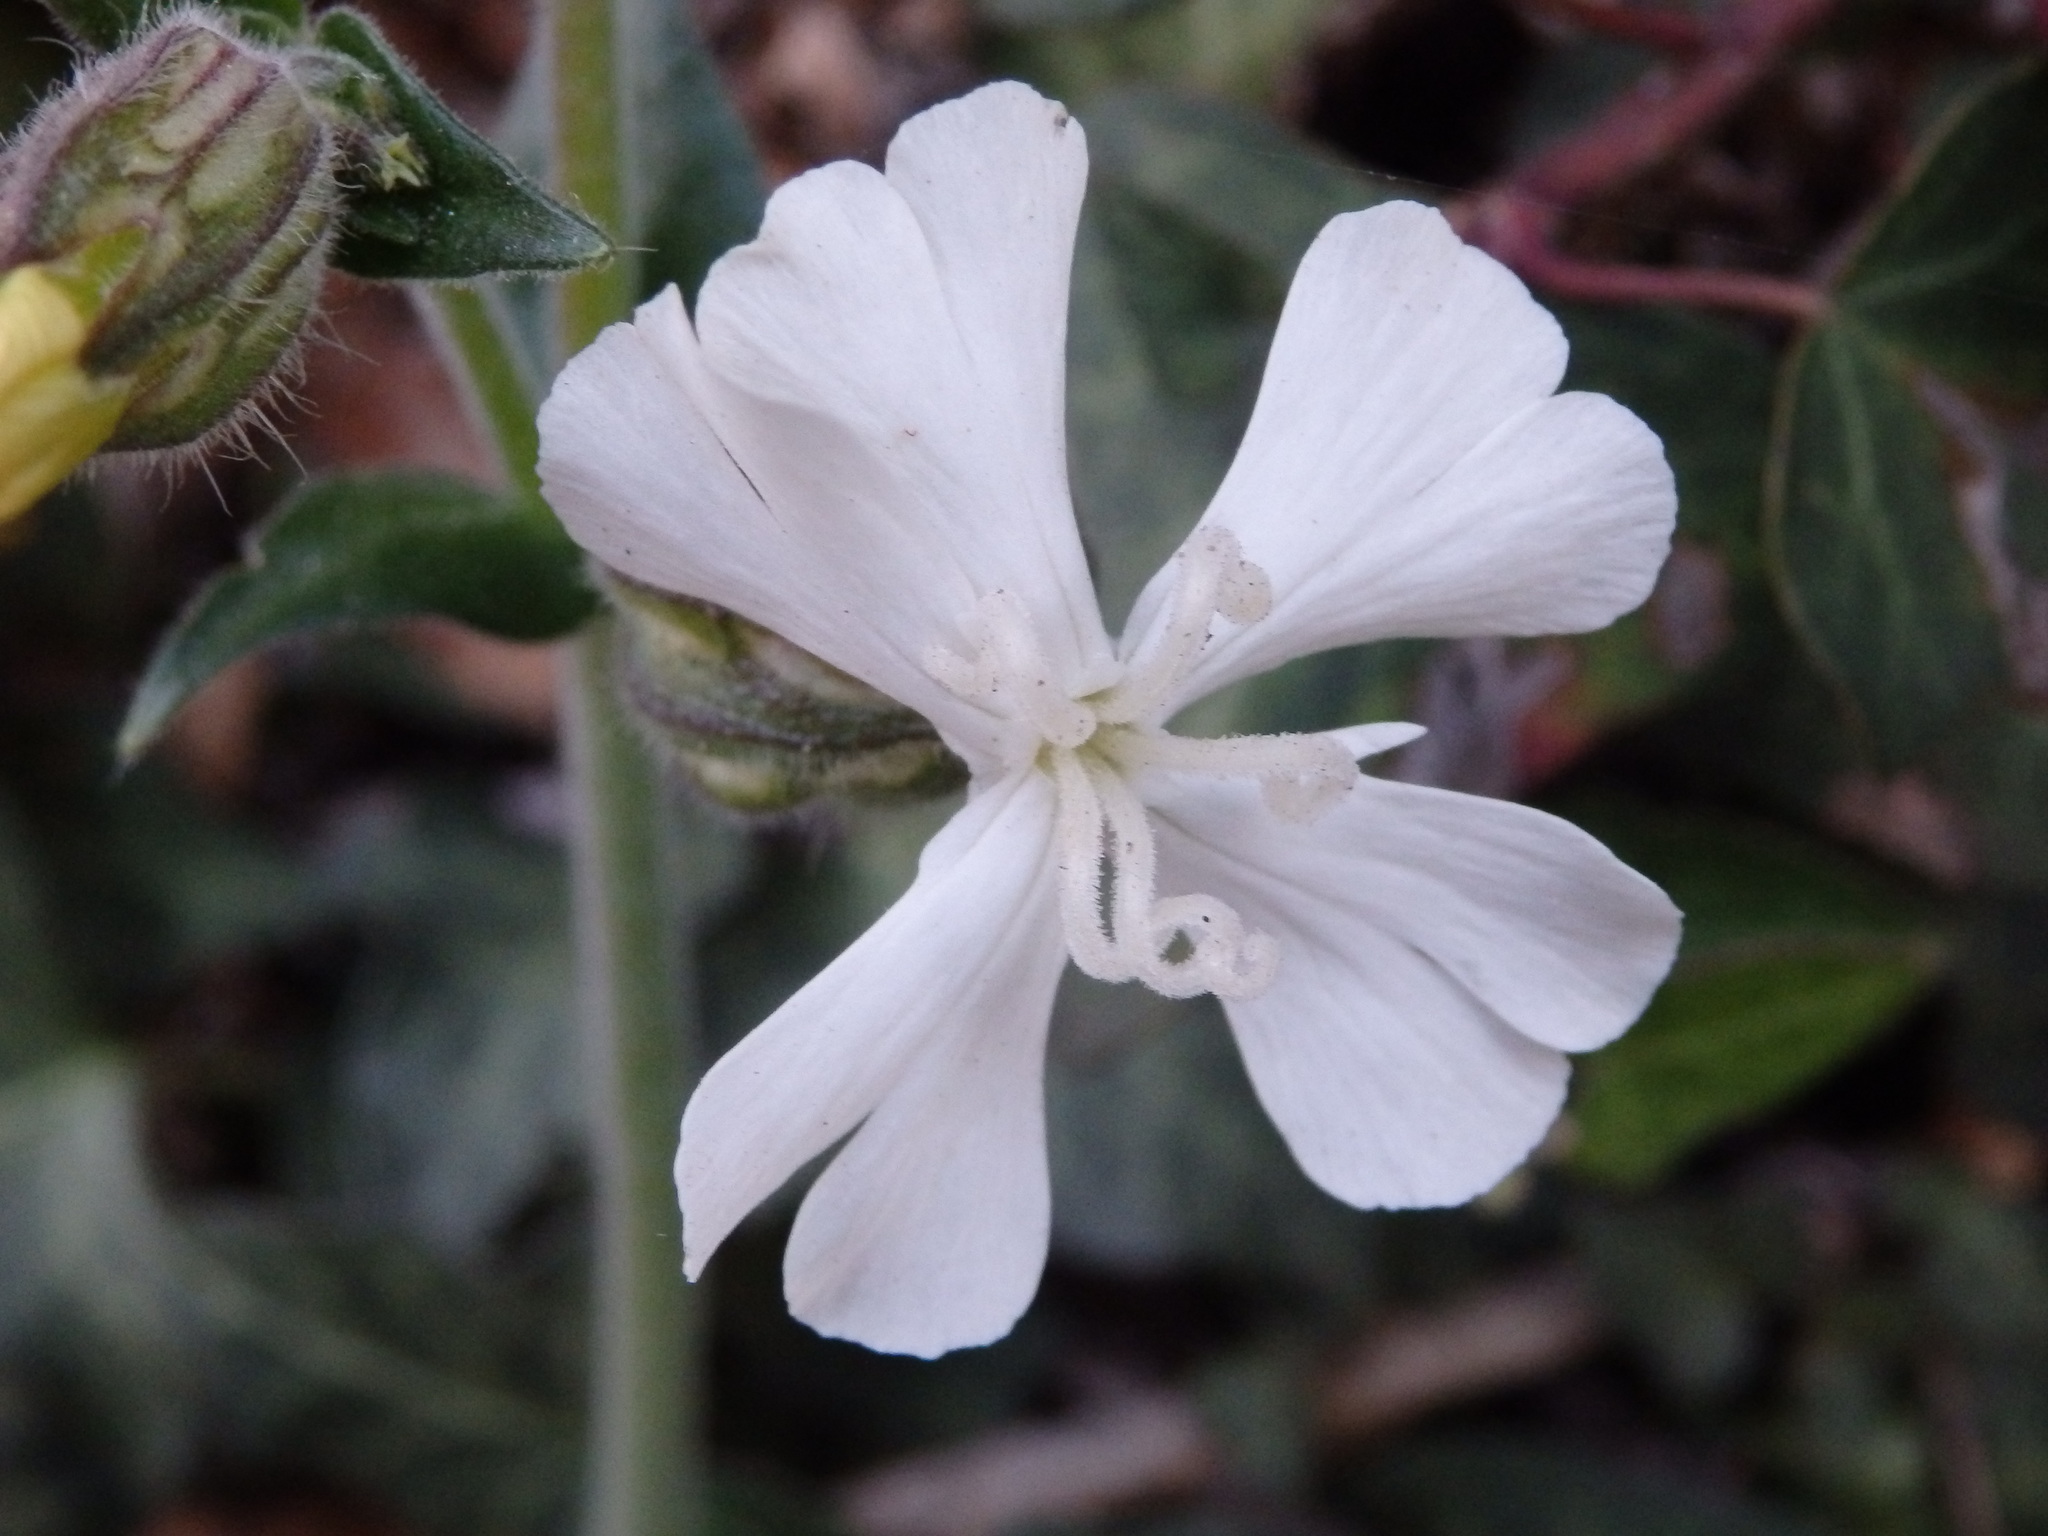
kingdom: Plantae
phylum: Tracheophyta
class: Magnoliopsida
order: Caryophyllales
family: Caryophyllaceae
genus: Silene
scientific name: Silene latifolia
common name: White campion
